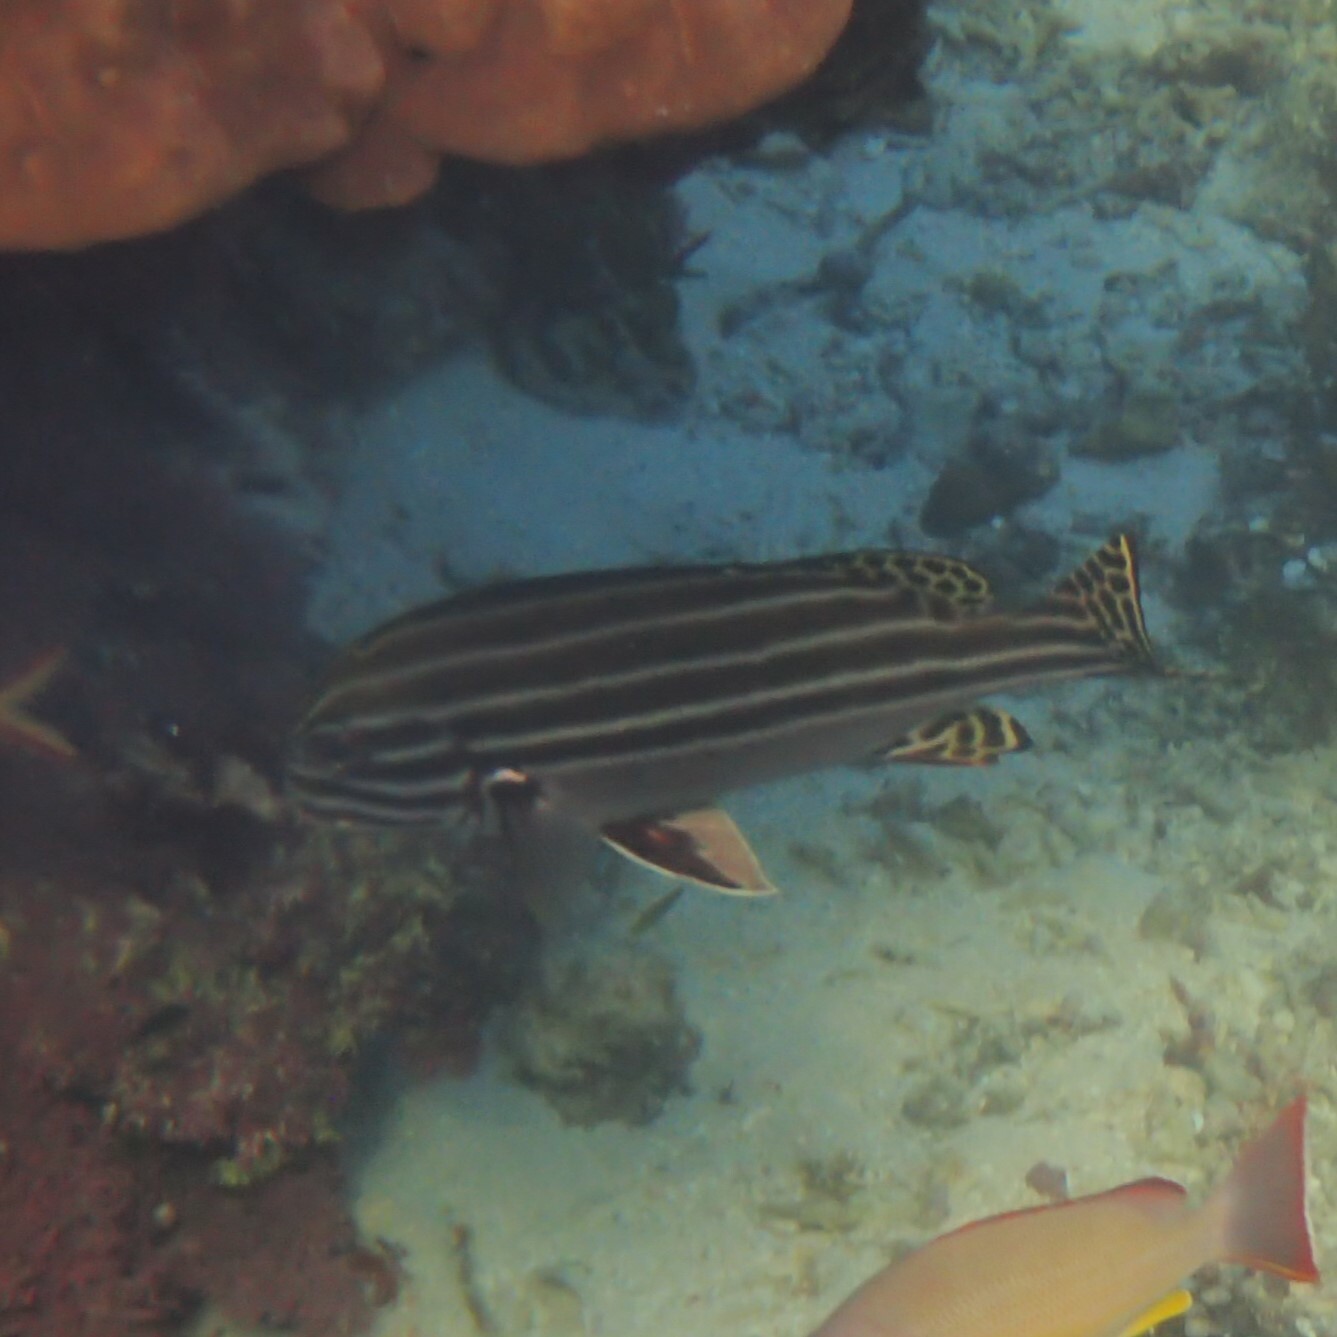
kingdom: Animalia
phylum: Chordata
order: Perciformes
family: Haemulidae
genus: Plectorhinchus
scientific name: Plectorhinchus lessonii
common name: Lesson's thicklip
